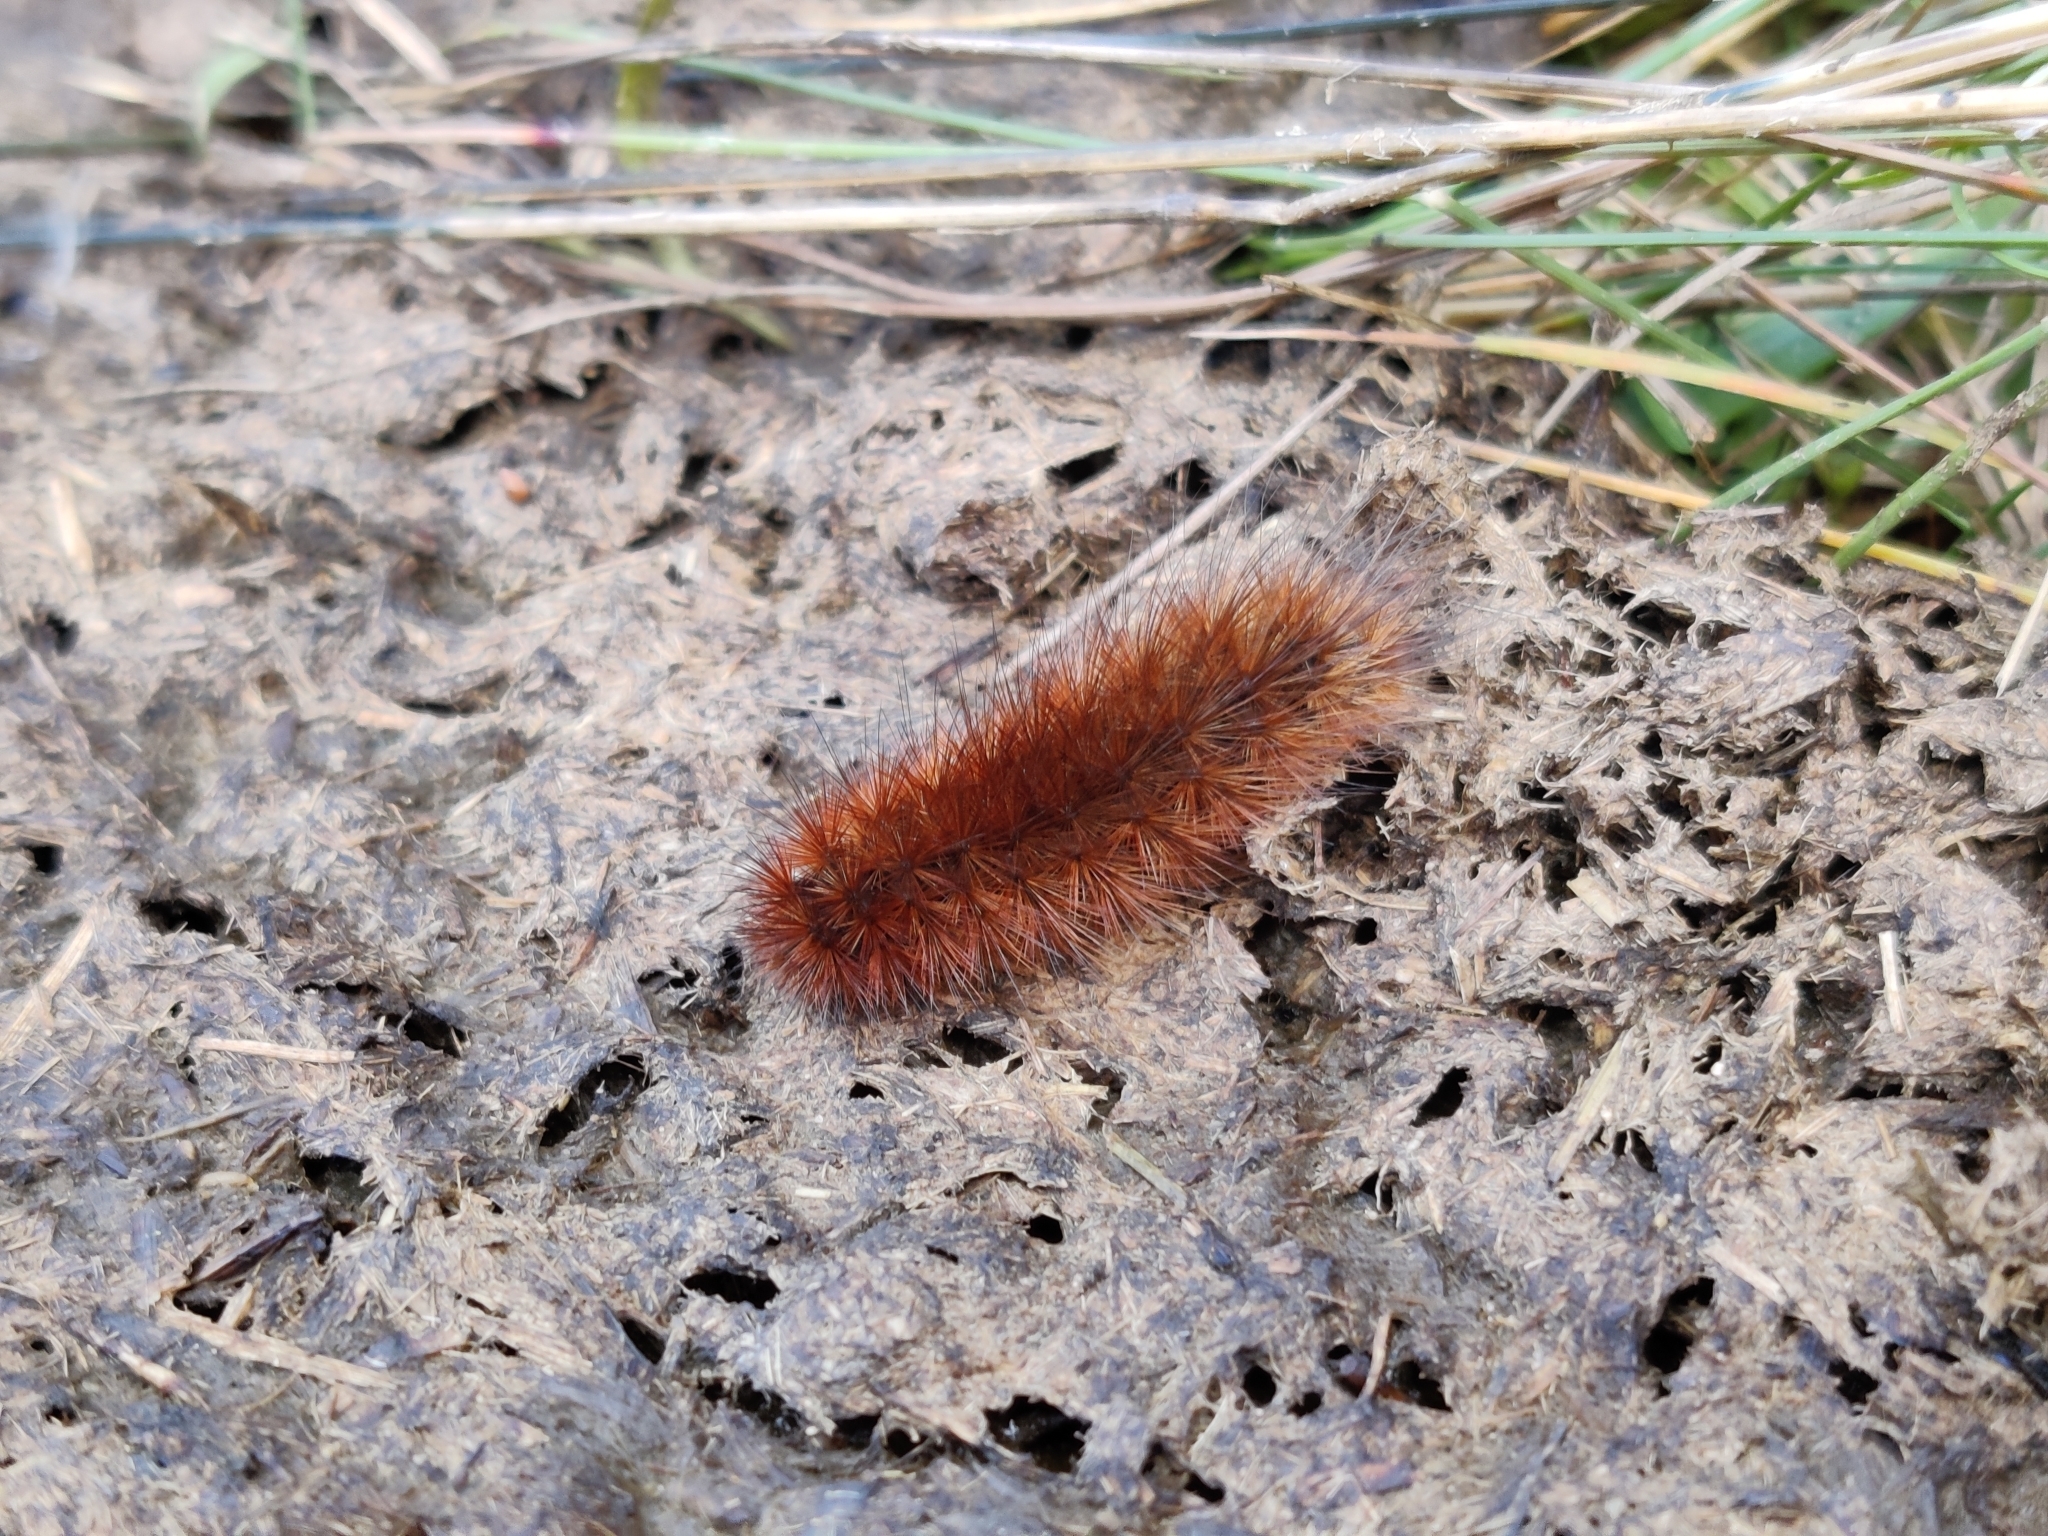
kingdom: Animalia
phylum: Arthropoda
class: Insecta
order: Lepidoptera
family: Erebidae
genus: Phragmatobia
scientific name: Phragmatobia fuliginosa
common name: Ruby tiger
